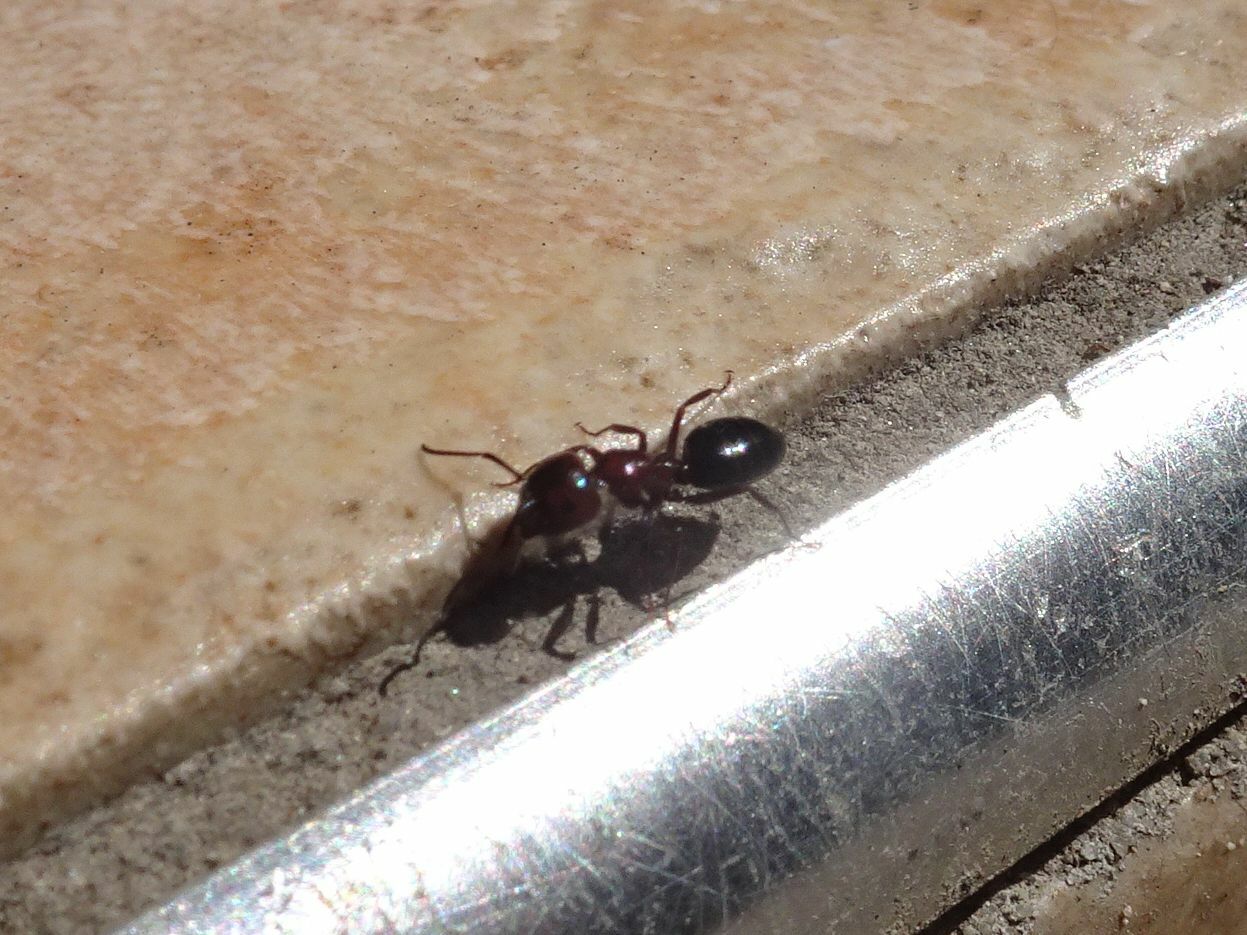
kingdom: Animalia
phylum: Arthropoda
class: Insecta
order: Hymenoptera
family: Formicidae
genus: Camponotus
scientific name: Camponotus lateralis
